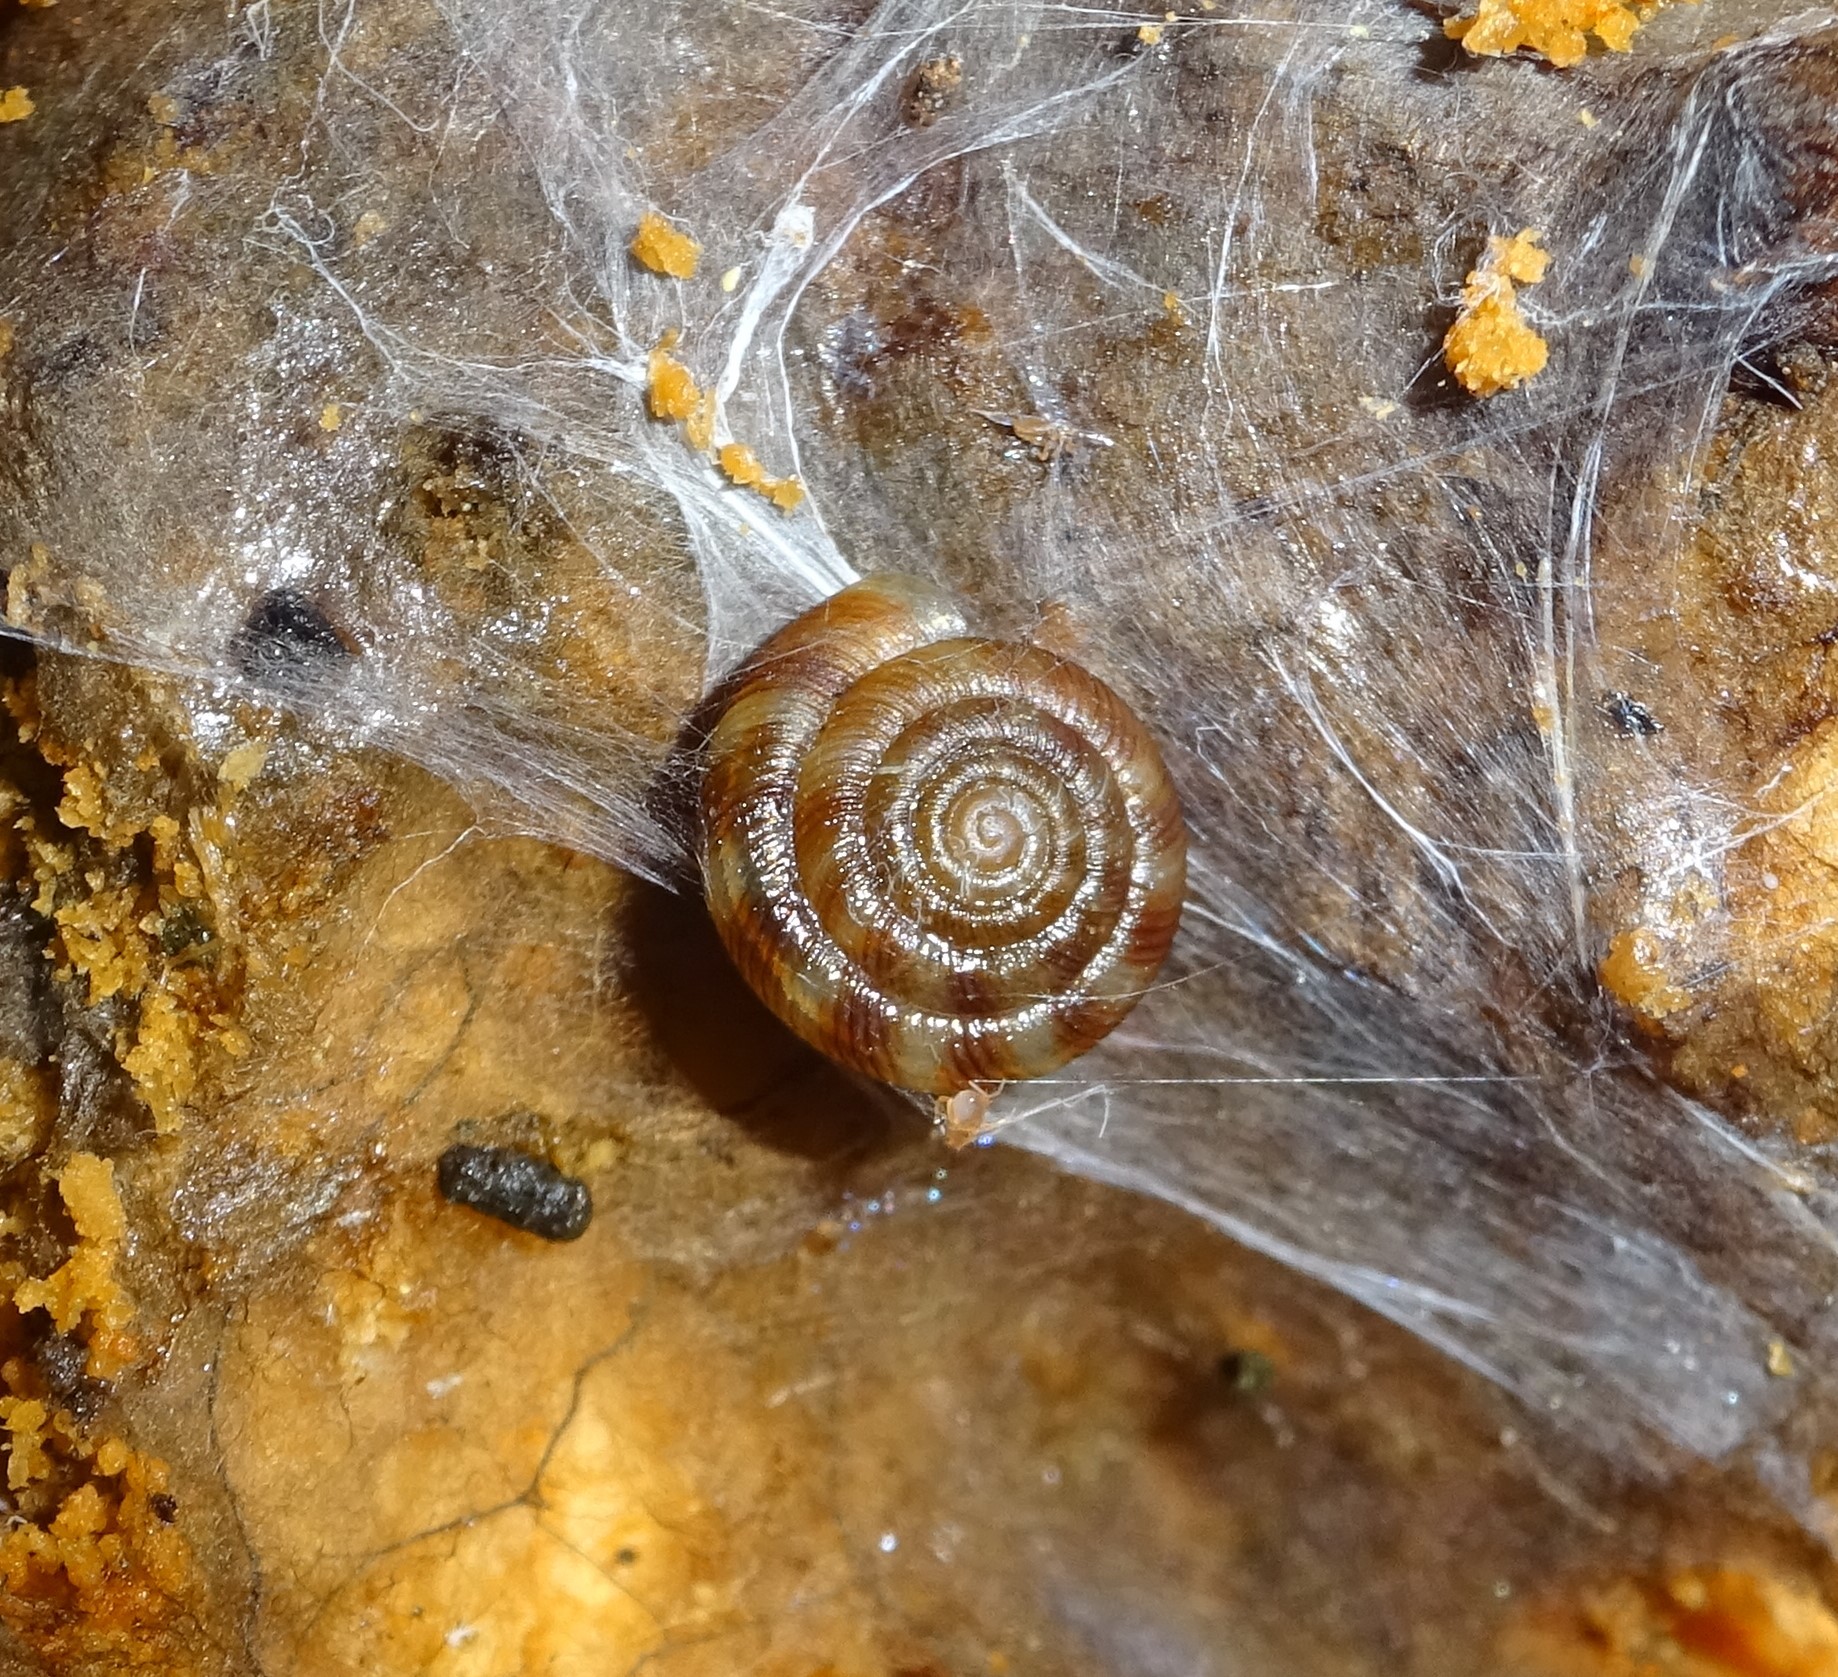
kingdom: Animalia
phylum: Mollusca
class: Gastropoda
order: Stylommatophora
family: Discidae
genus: Discus
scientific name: Discus rotundatus
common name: Rounded snail
